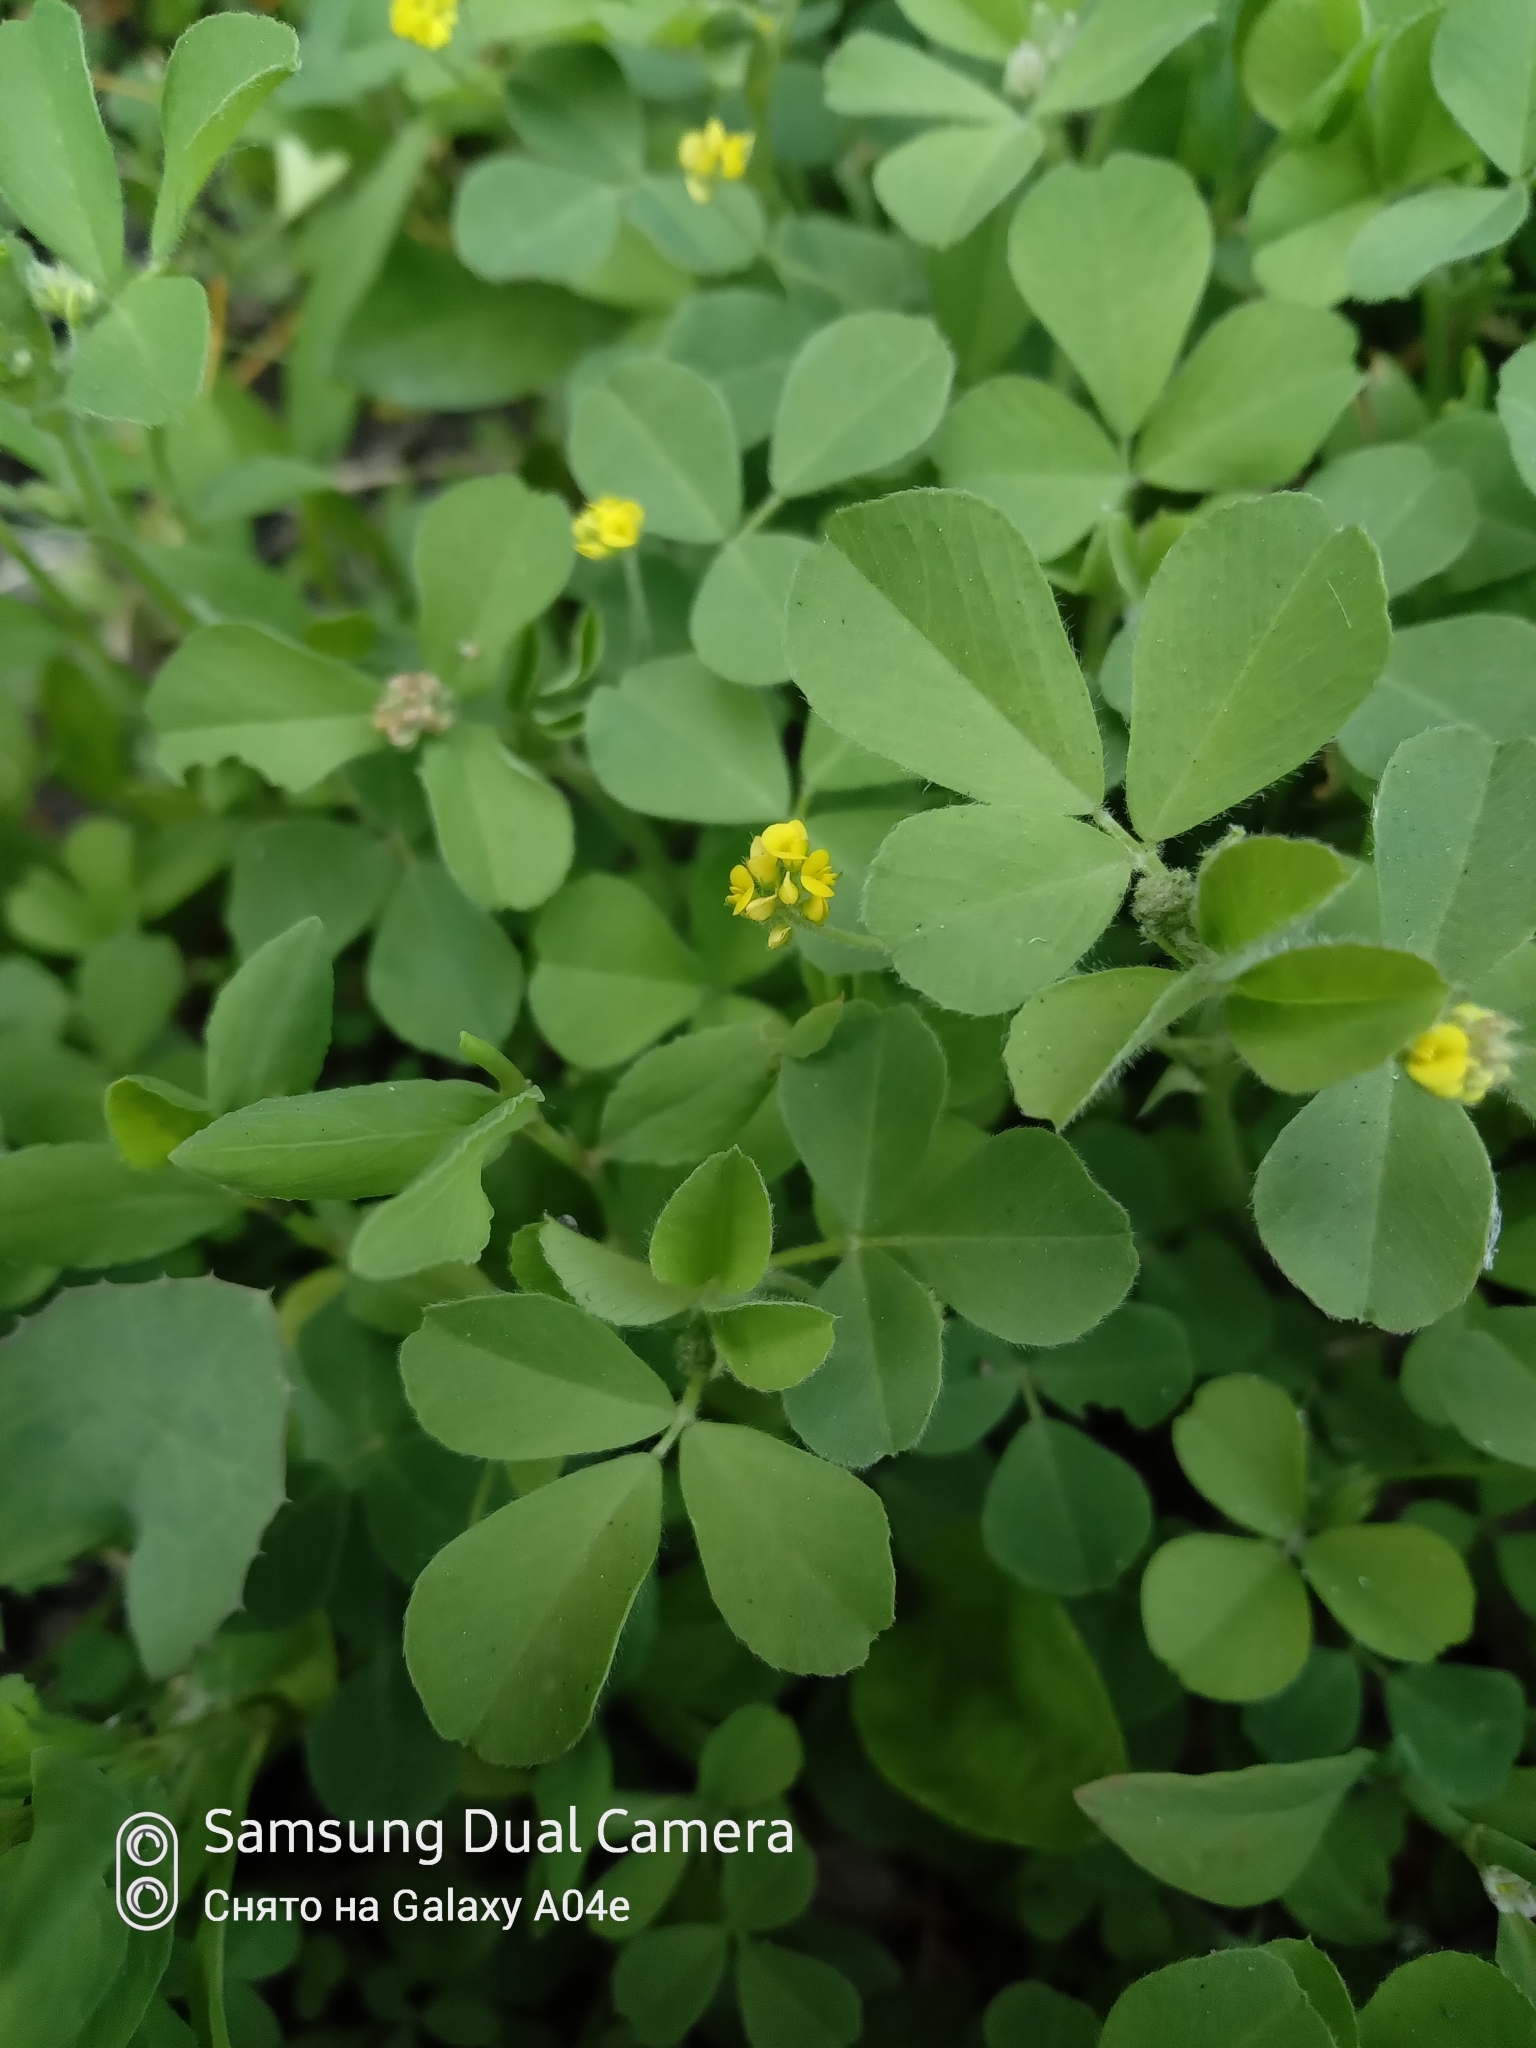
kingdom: Plantae
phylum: Tracheophyta
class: Magnoliopsida
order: Fabales
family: Fabaceae
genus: Medicago
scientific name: Medicago lupulina
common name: Black medick
